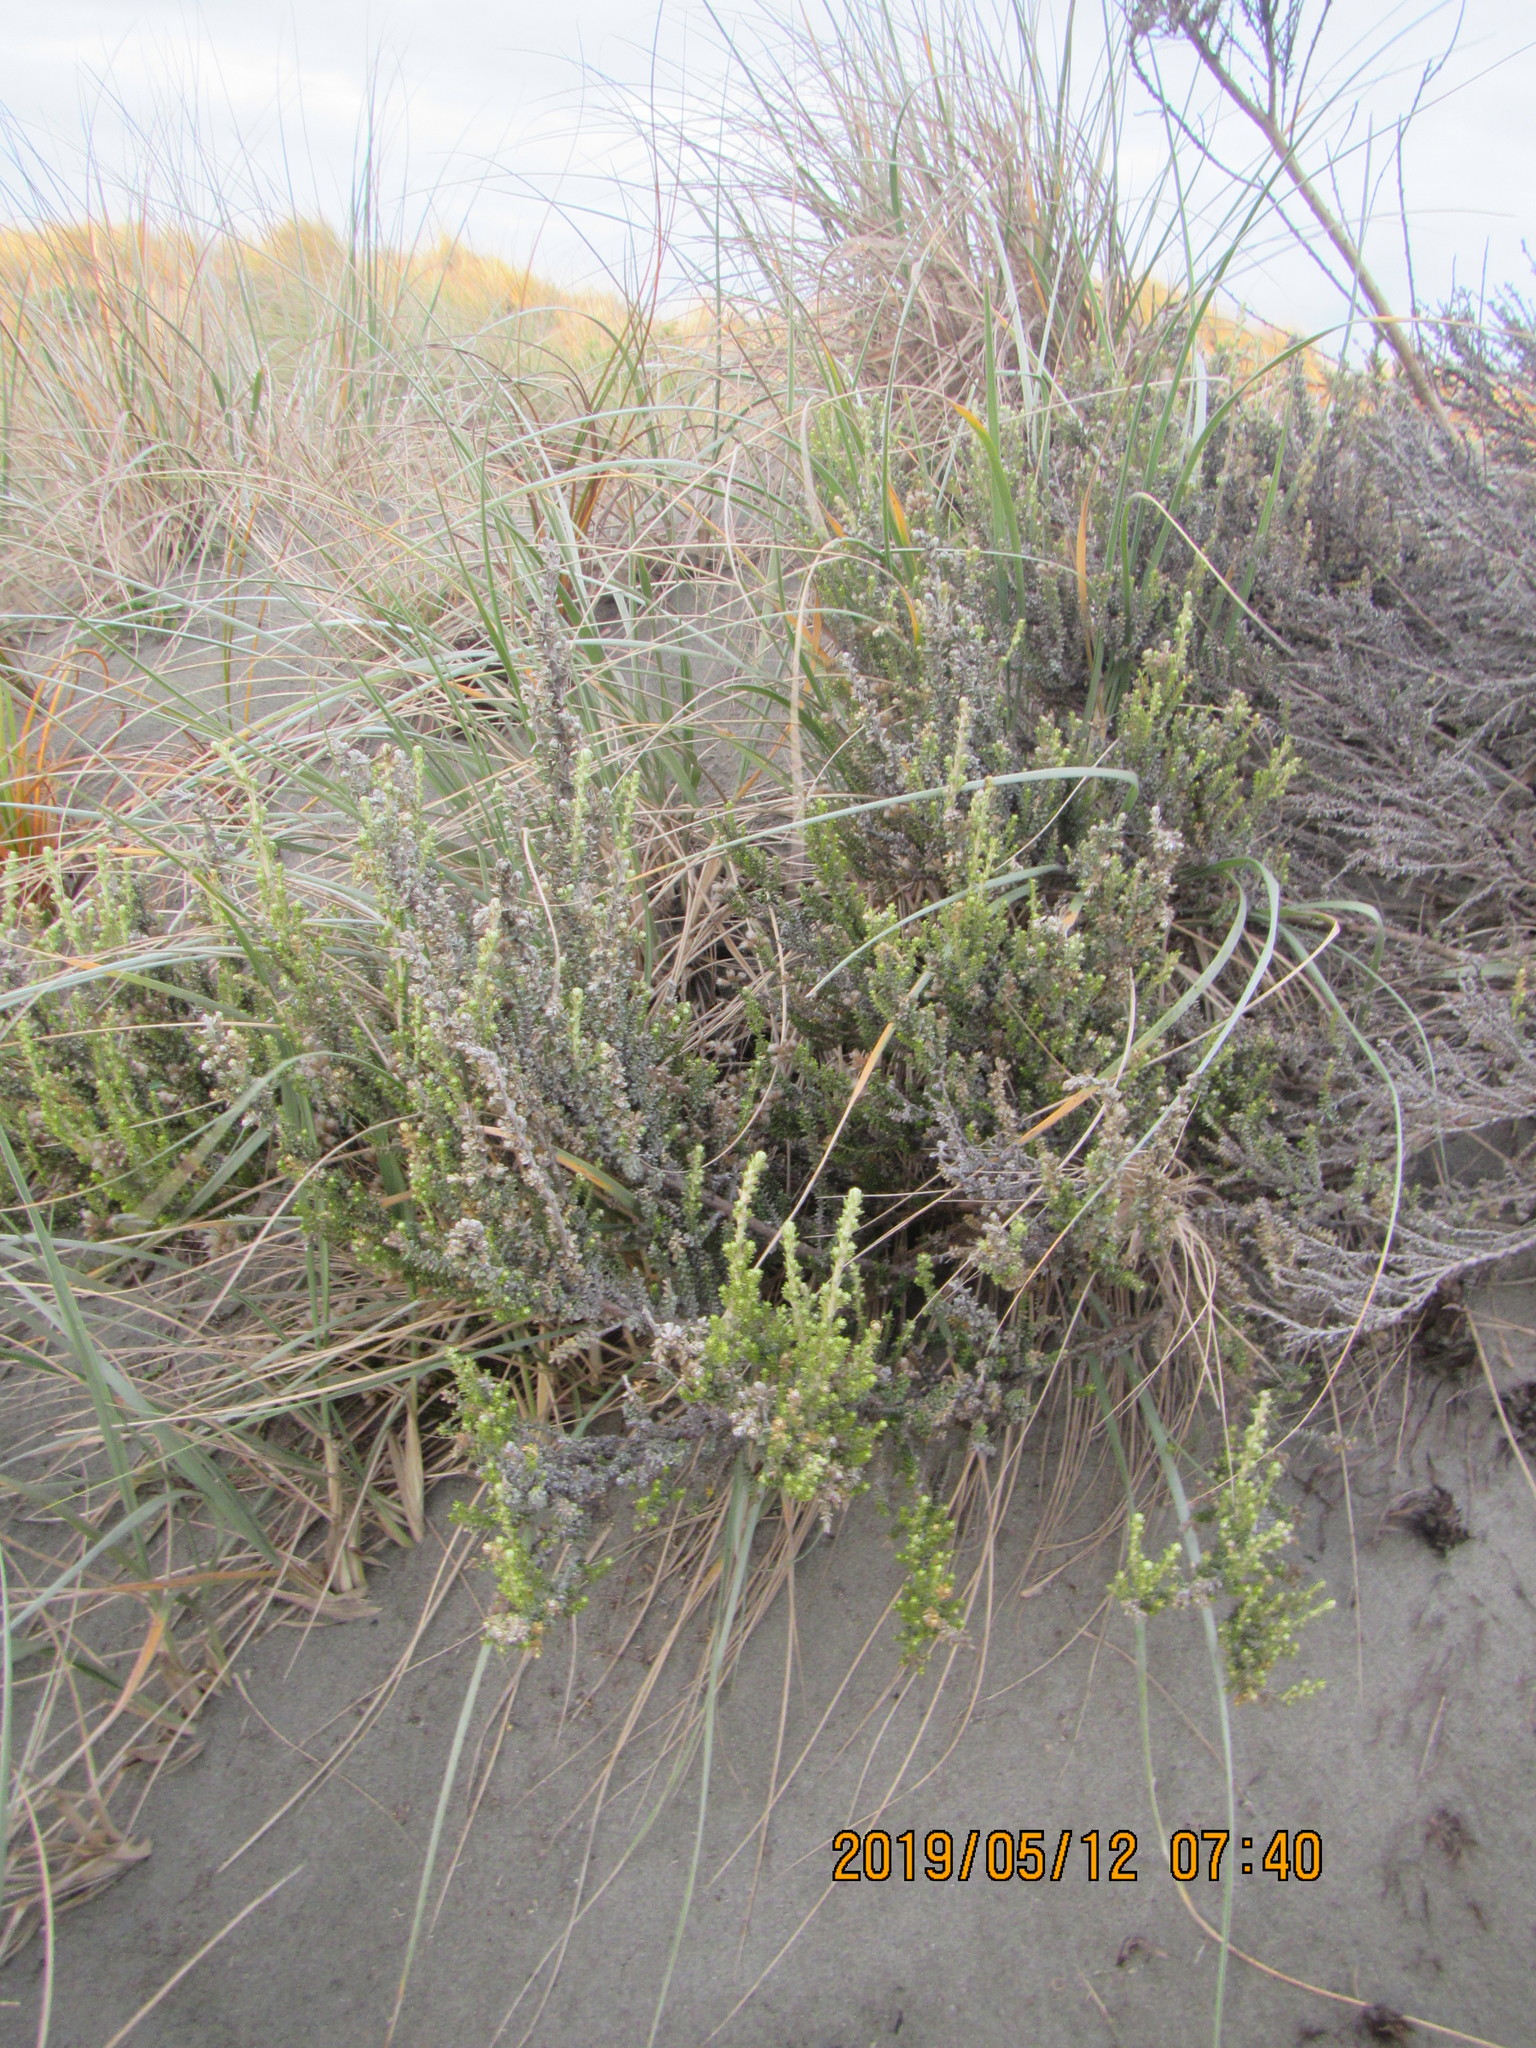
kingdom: Plantae
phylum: Tracheophyta
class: Magnoliopsida
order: Asterales
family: Asteraceae
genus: Ozothamnus
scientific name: Ozothamnus leptophyllus
